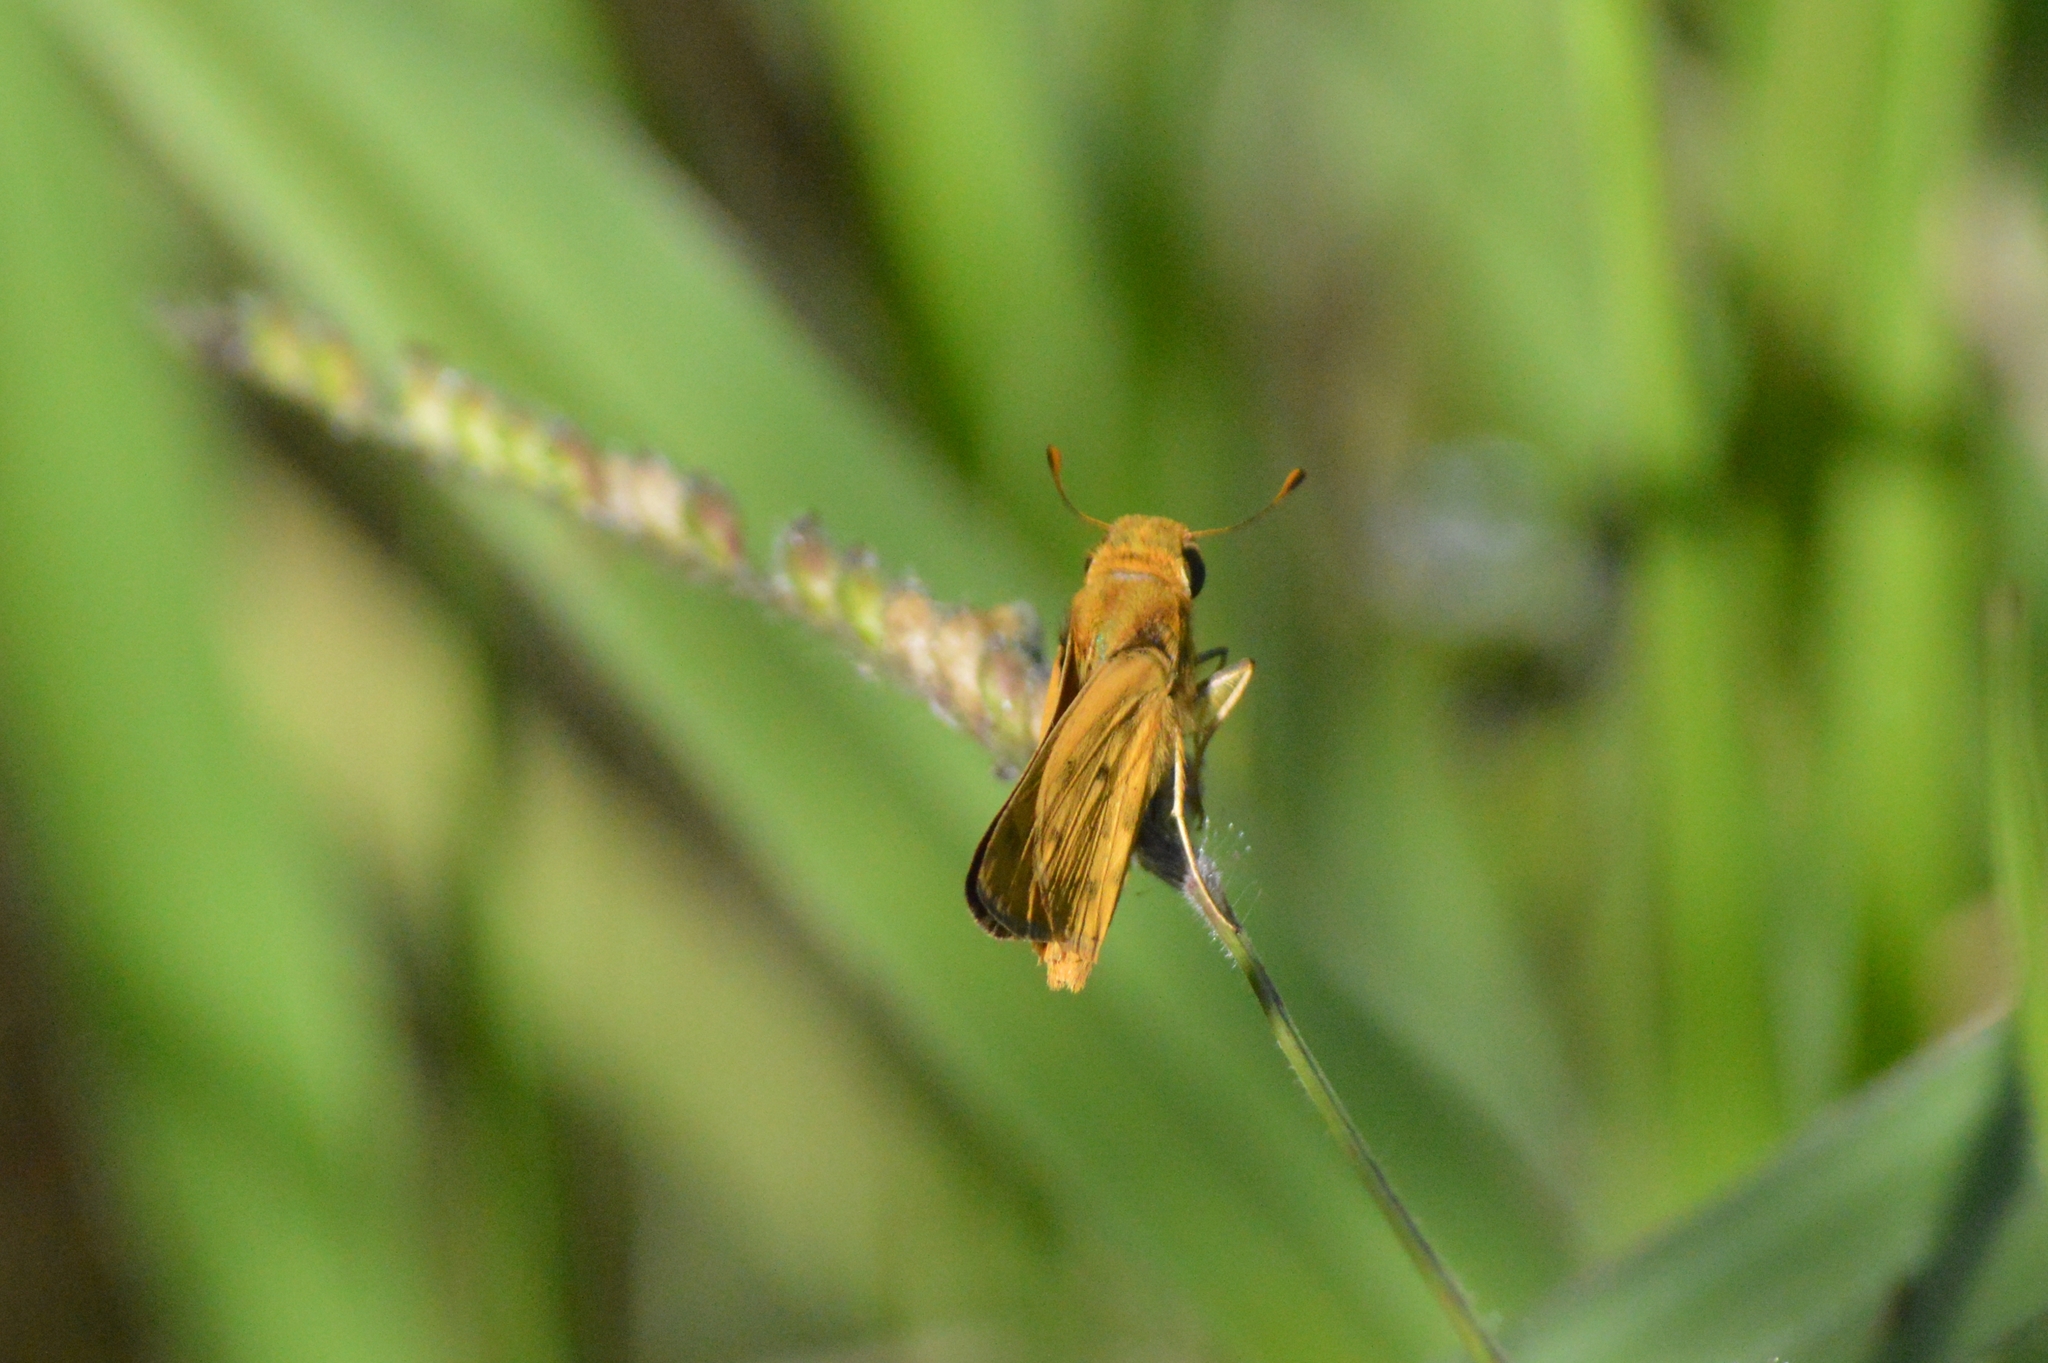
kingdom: Animalia
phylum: Arthropoda
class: Insecta
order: Lepidoptera
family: Hesperiidae
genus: Hylephila
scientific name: Hylephila phyleus
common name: Fiery skipper
